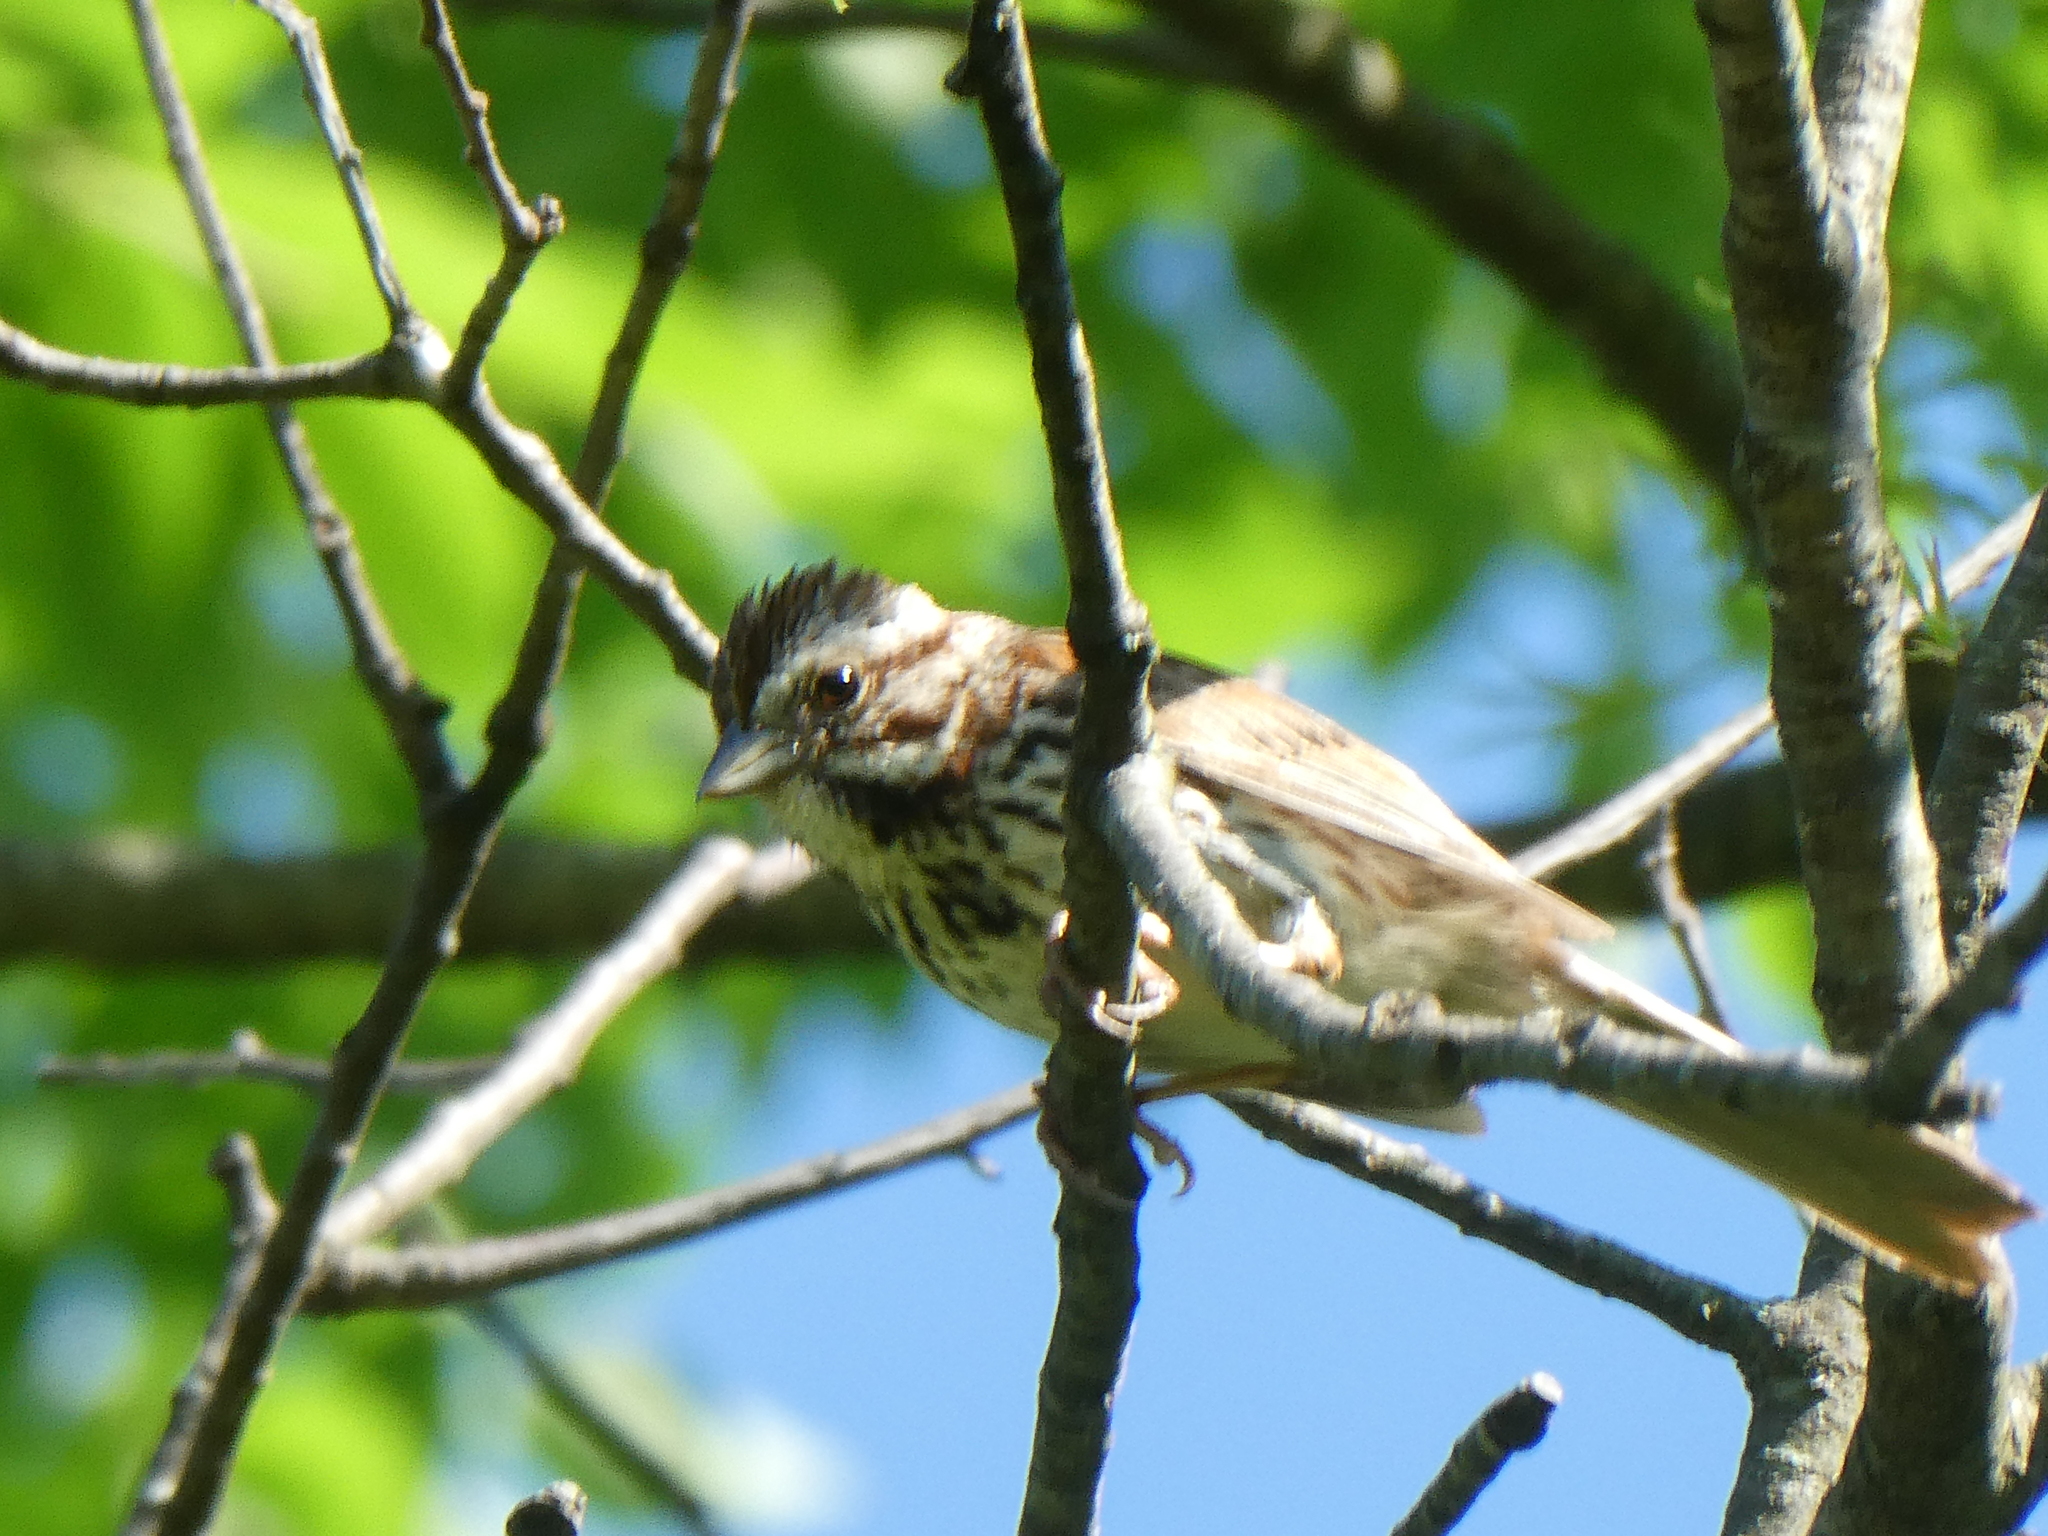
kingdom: Animalia
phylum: Chordata
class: Aves
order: Passeriformes
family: Passerellidae
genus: Melospiza
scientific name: Melospiza melodia
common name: Song sparrow
